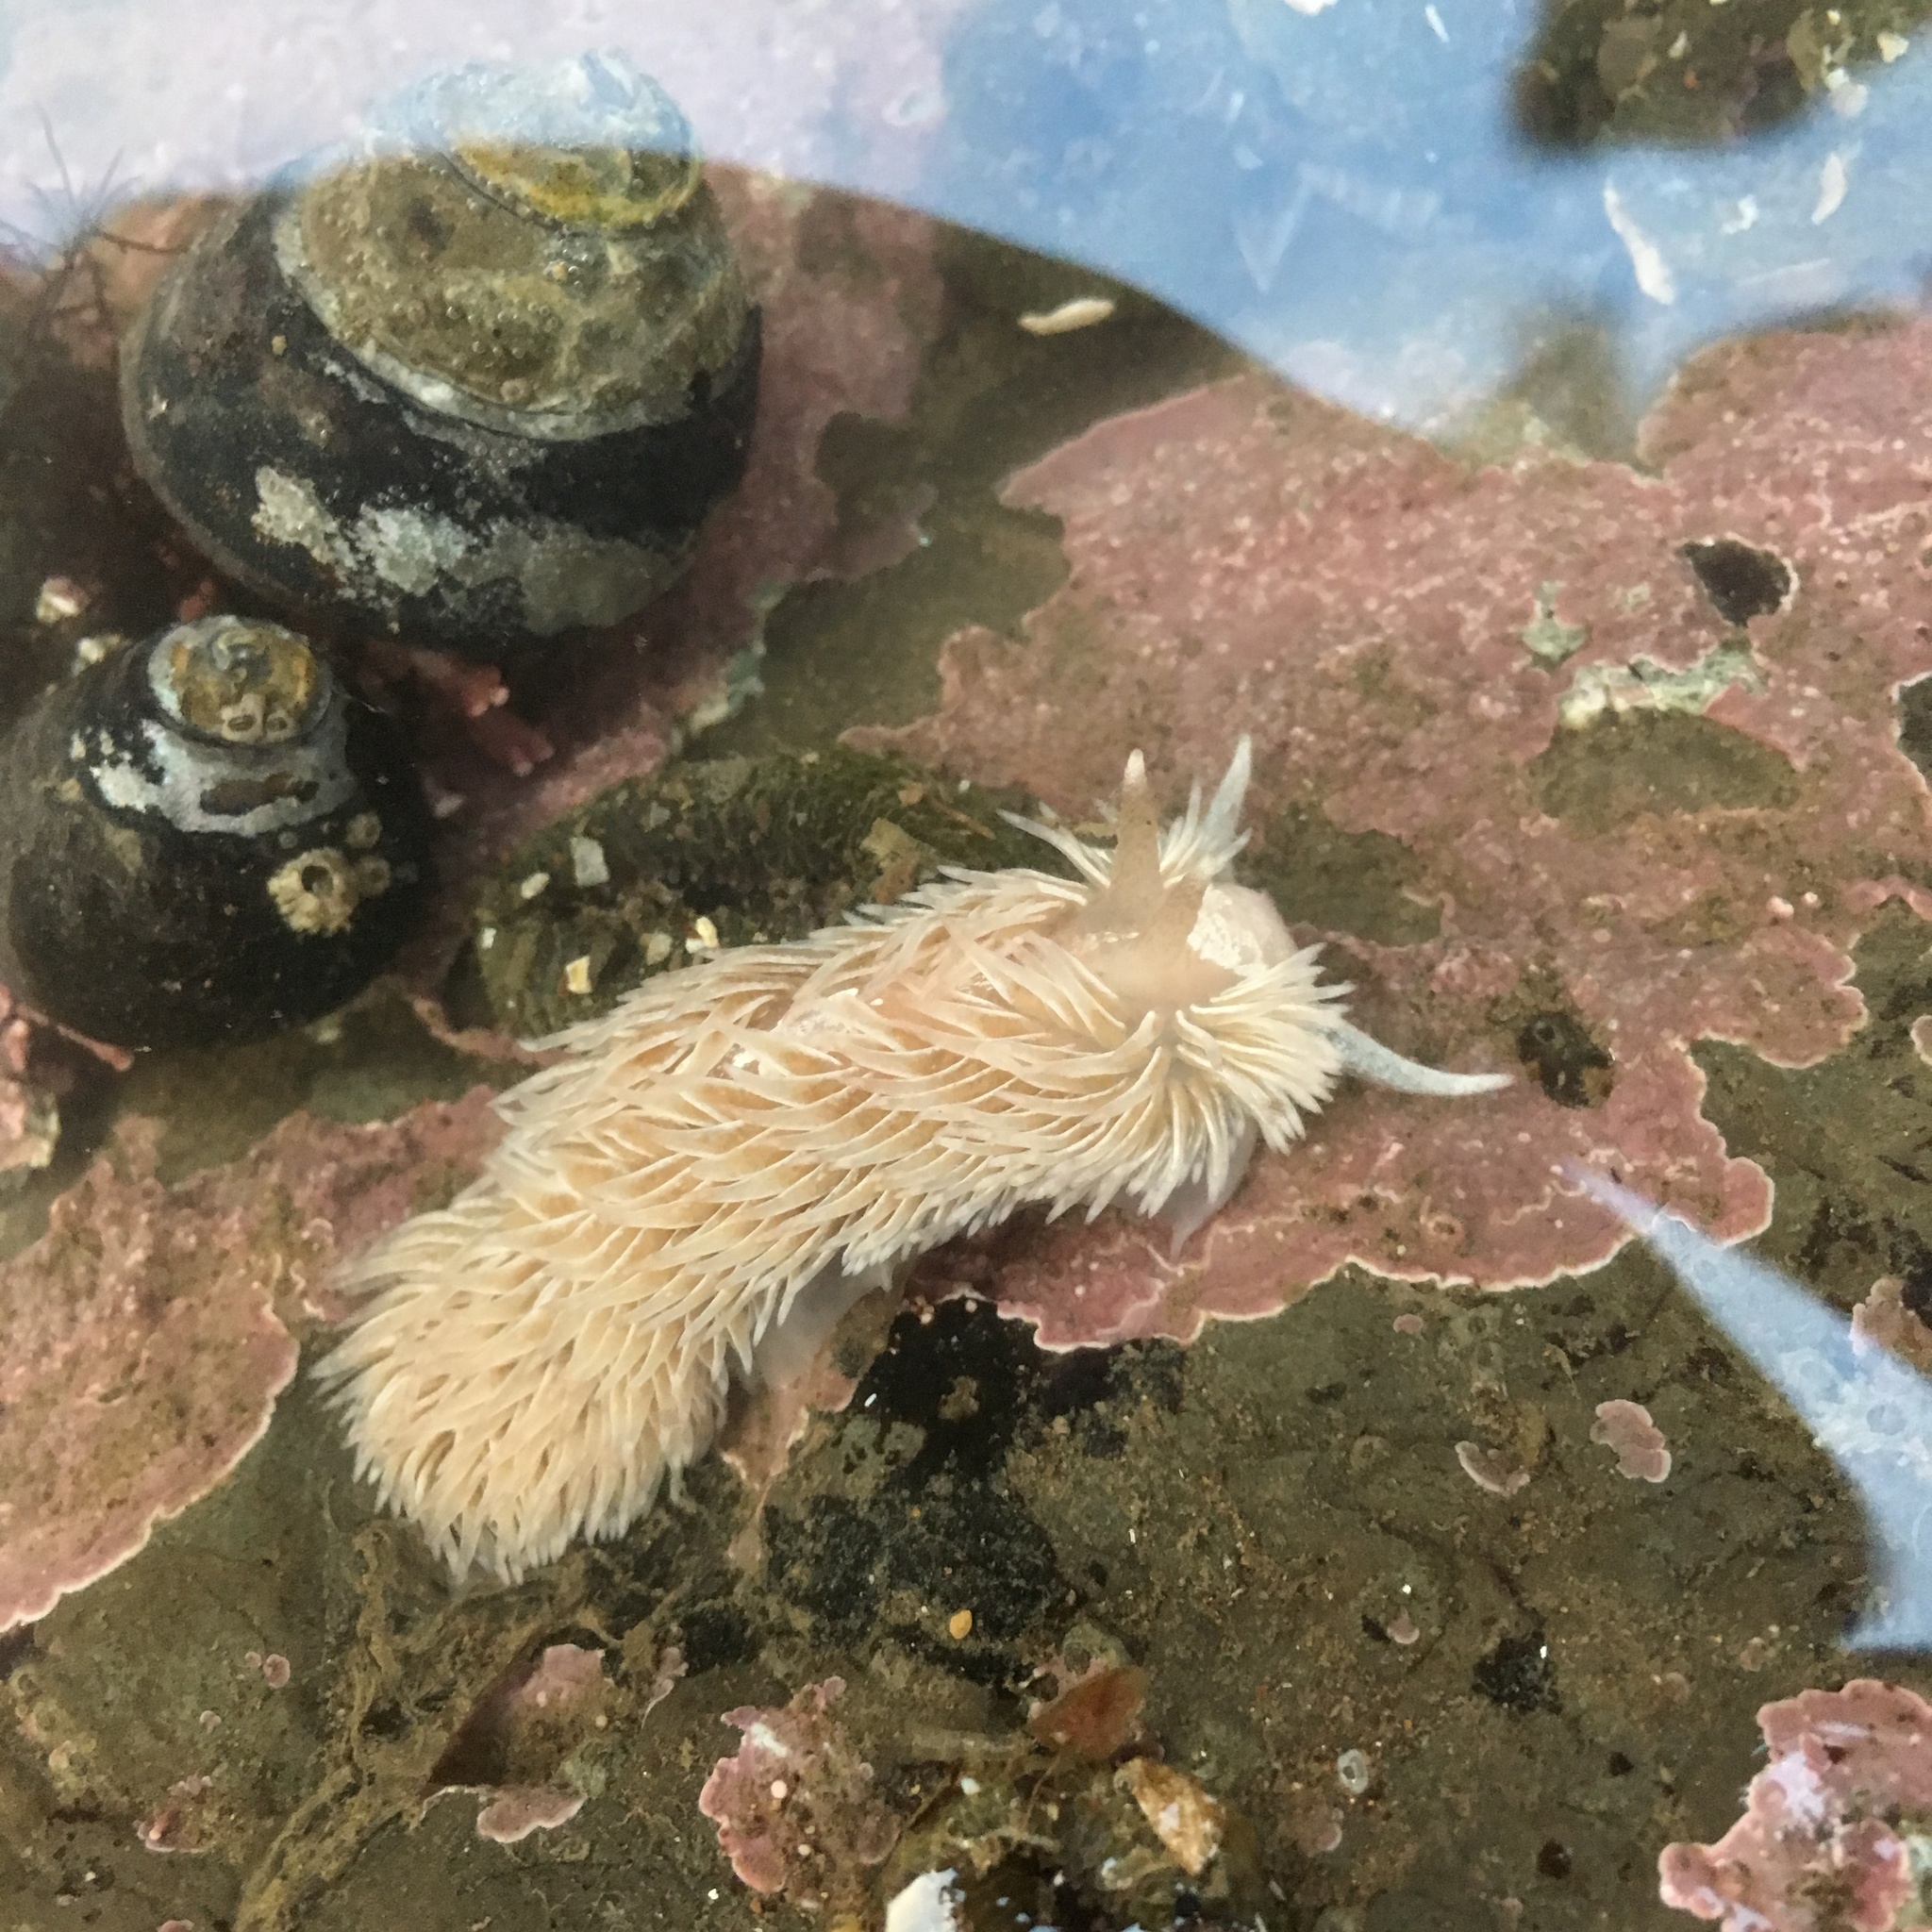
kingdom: Animalia
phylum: Mollusca
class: Gastropoda
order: Nudibranchia
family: Aeolidiidae
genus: Aeolidia
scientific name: Aeolidia loui
